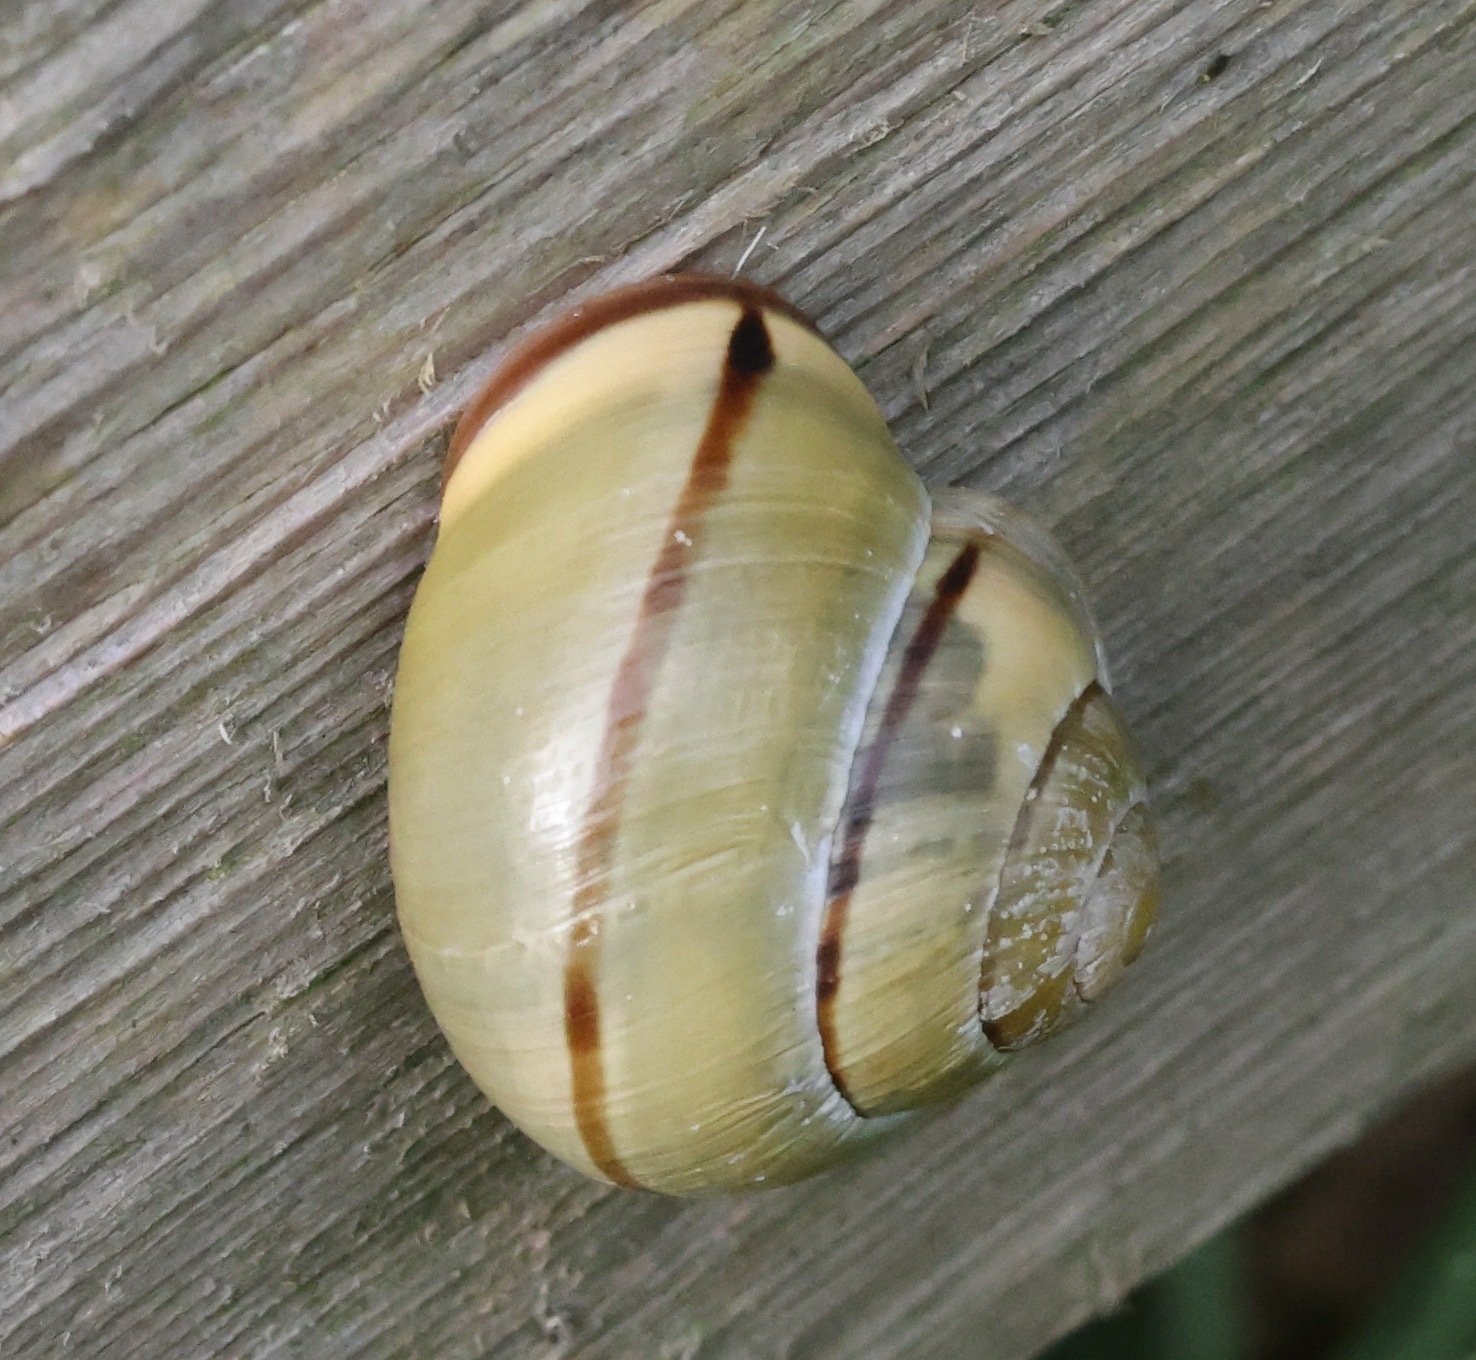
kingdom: Animalia
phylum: Mollusca
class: Gastropoda
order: Stylommatophora
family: Helicidae
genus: Cepaea
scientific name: Cepaea nemoralis
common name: Grovesnail
